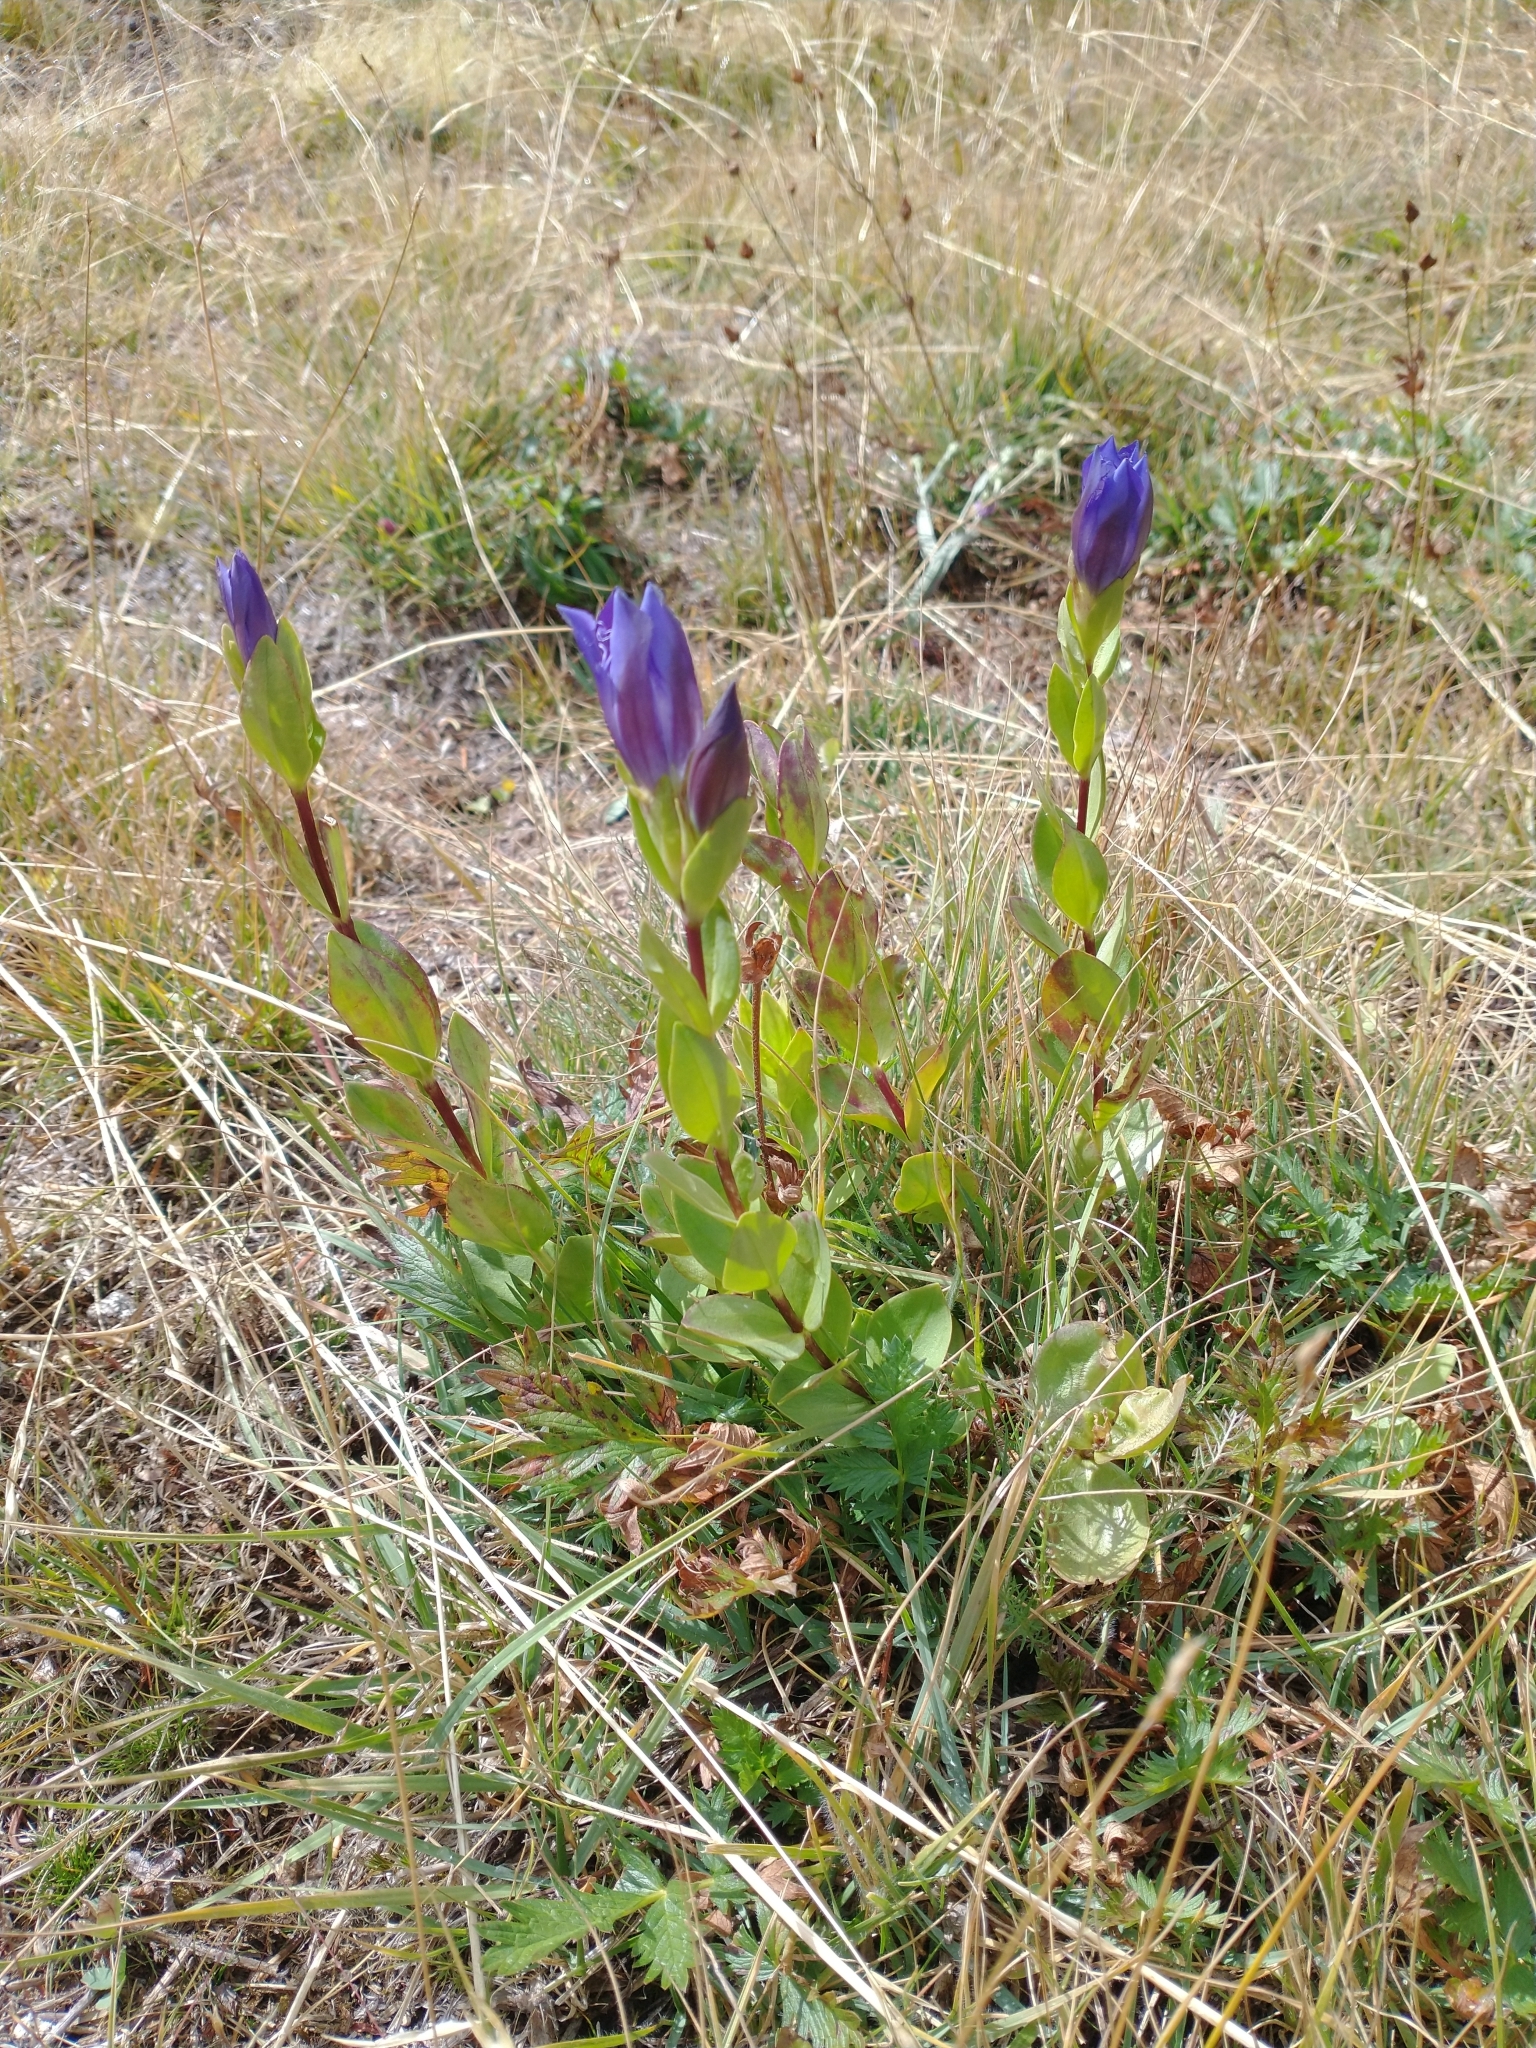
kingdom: Plantae
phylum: Tracheophyta
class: Magnoliopsida
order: Gentianales
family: Gentianaceae
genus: Gentiana
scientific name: Gentiana plurisetosa
